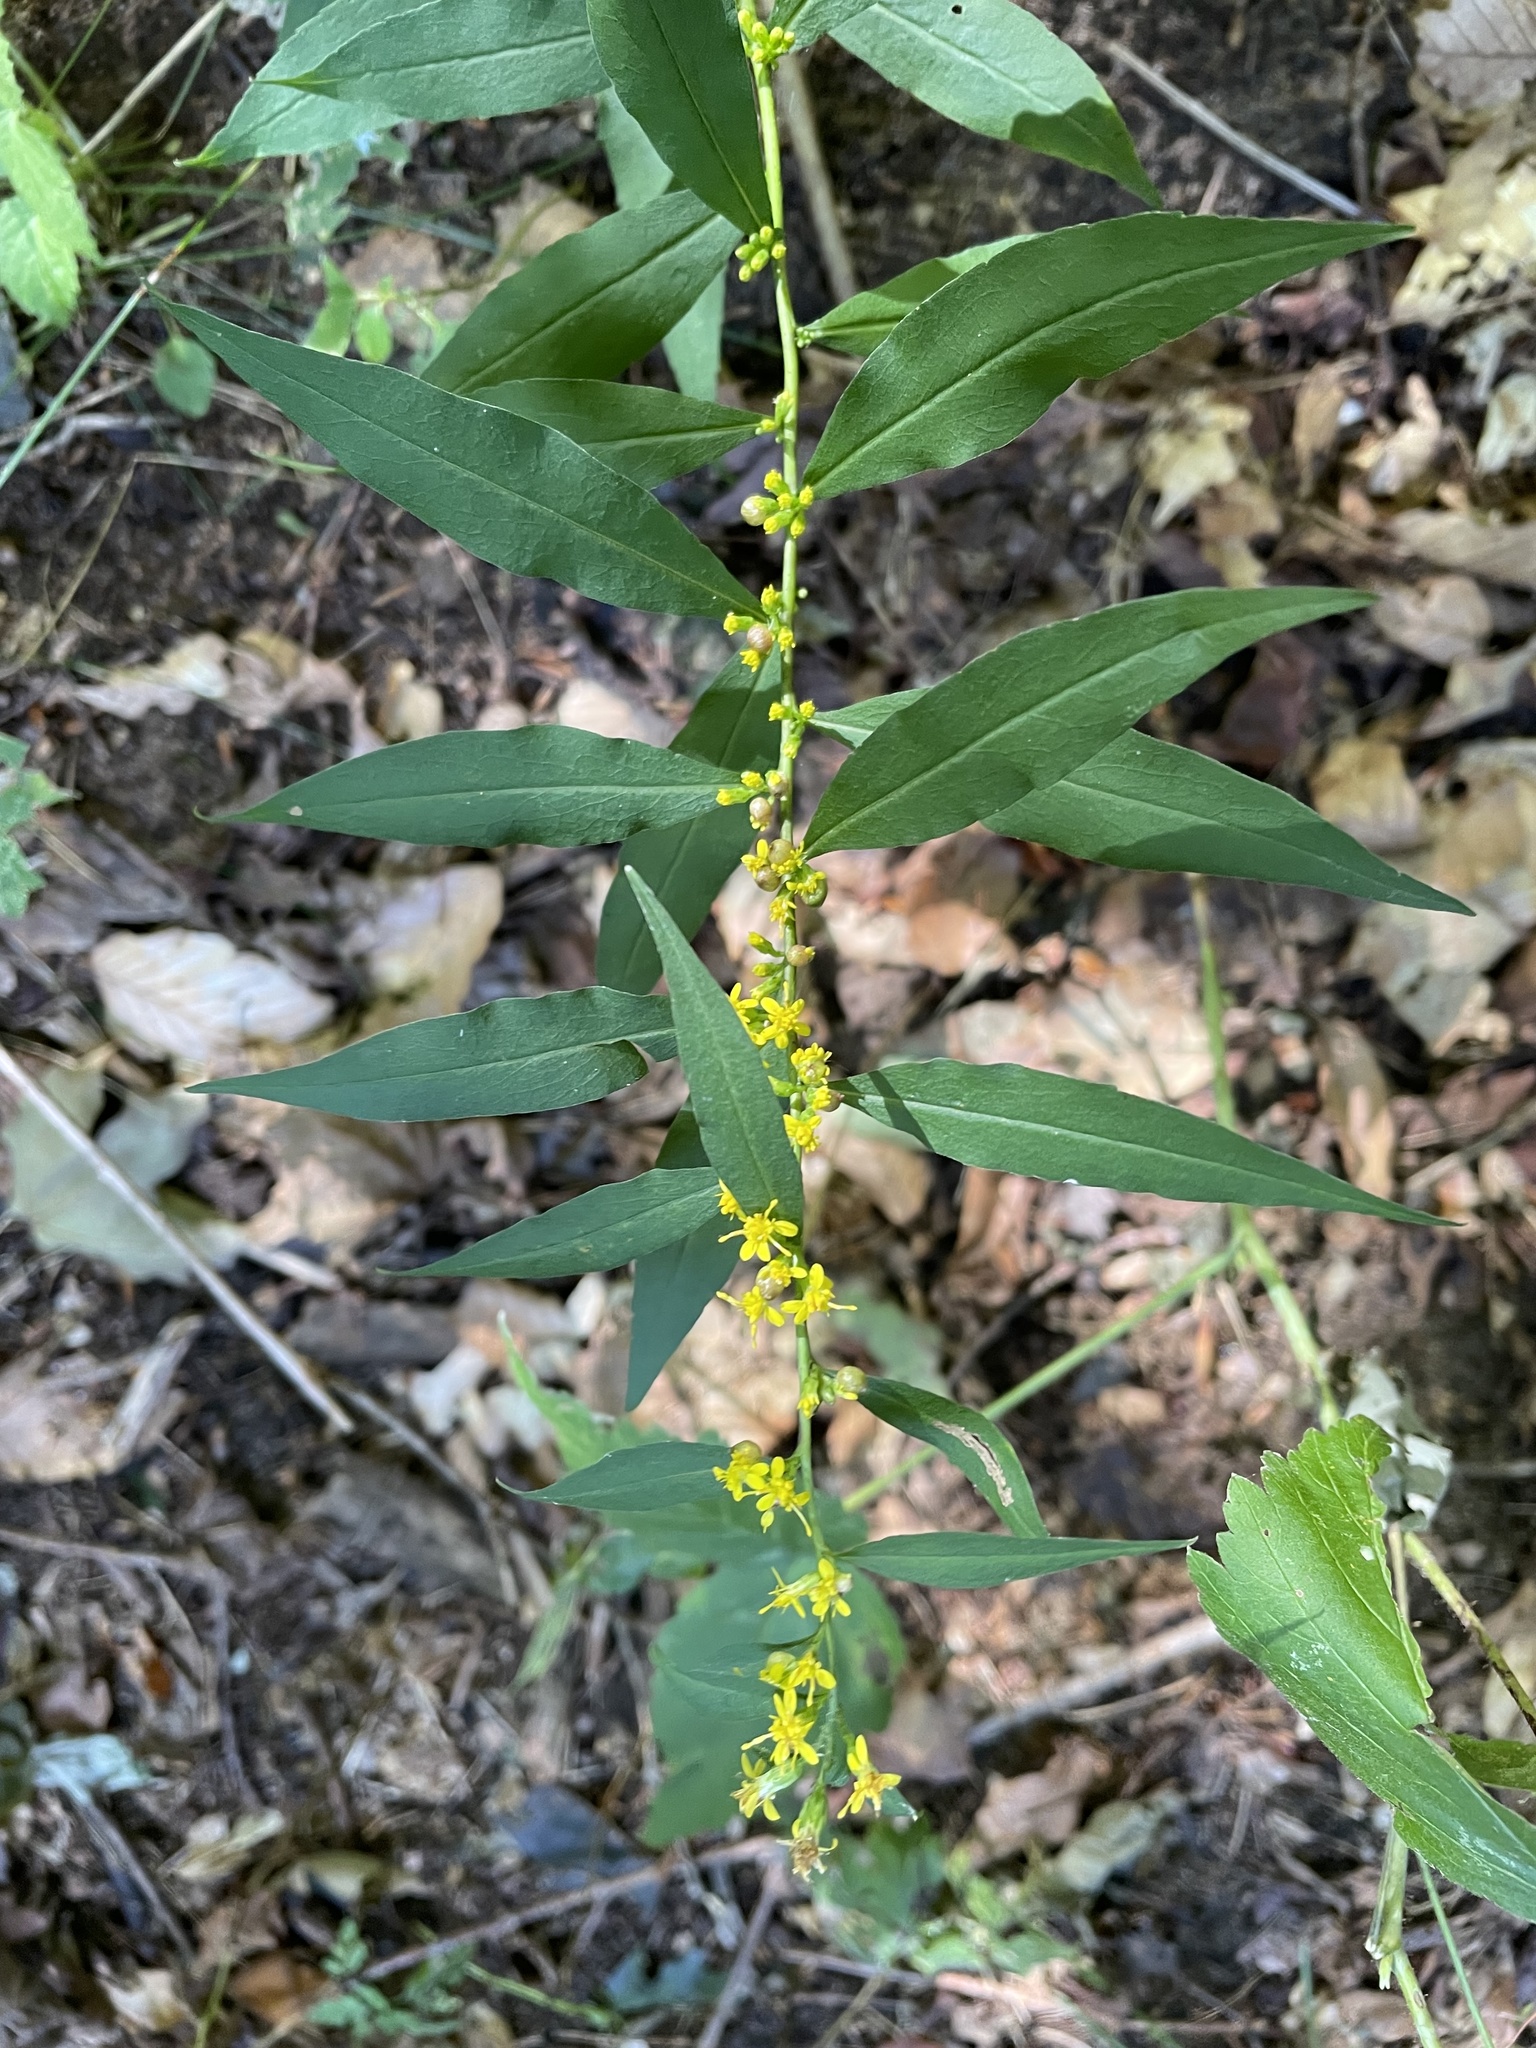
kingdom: Plantae
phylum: Tracheophyta
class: Magnoliopsida
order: Asterales
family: Asteraceae
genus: Solidago
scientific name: Solidago caesia
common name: Woodland goldenrod
